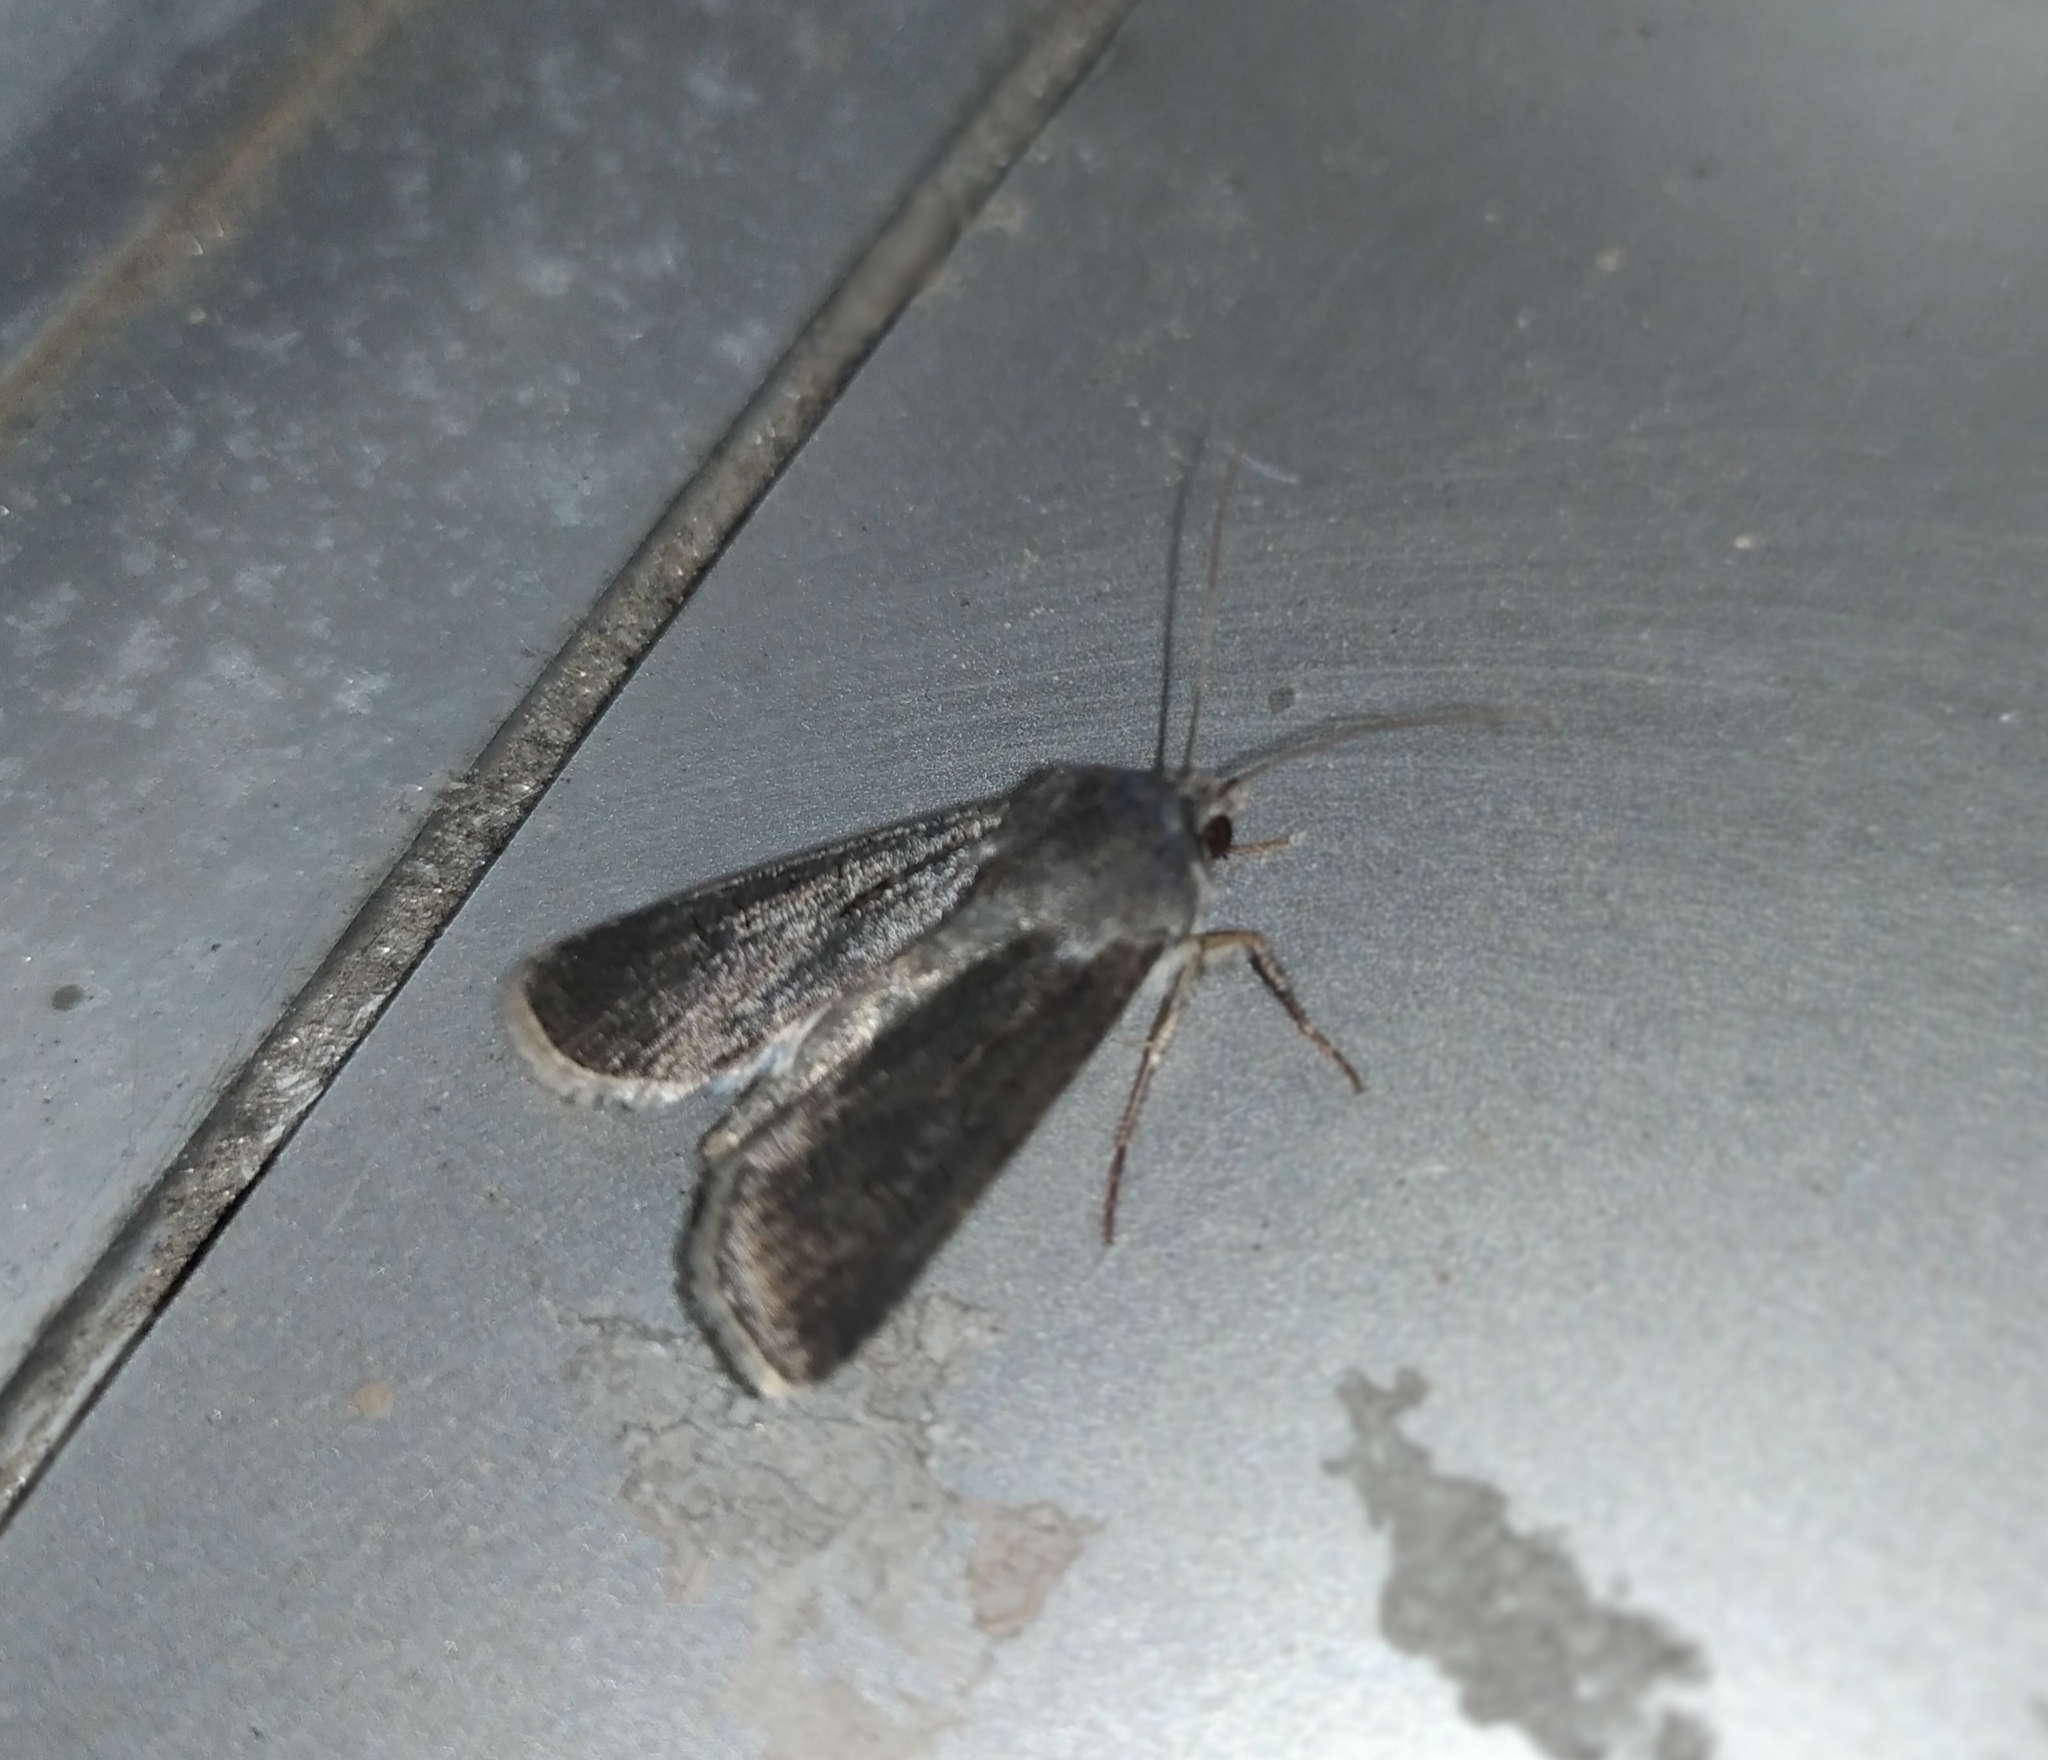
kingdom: Animalia
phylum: Arthropoda
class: Insecta
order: Lepidoptera
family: Noctuidae
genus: Agrotis
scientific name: Agrotis segetum
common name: Turnip moth
